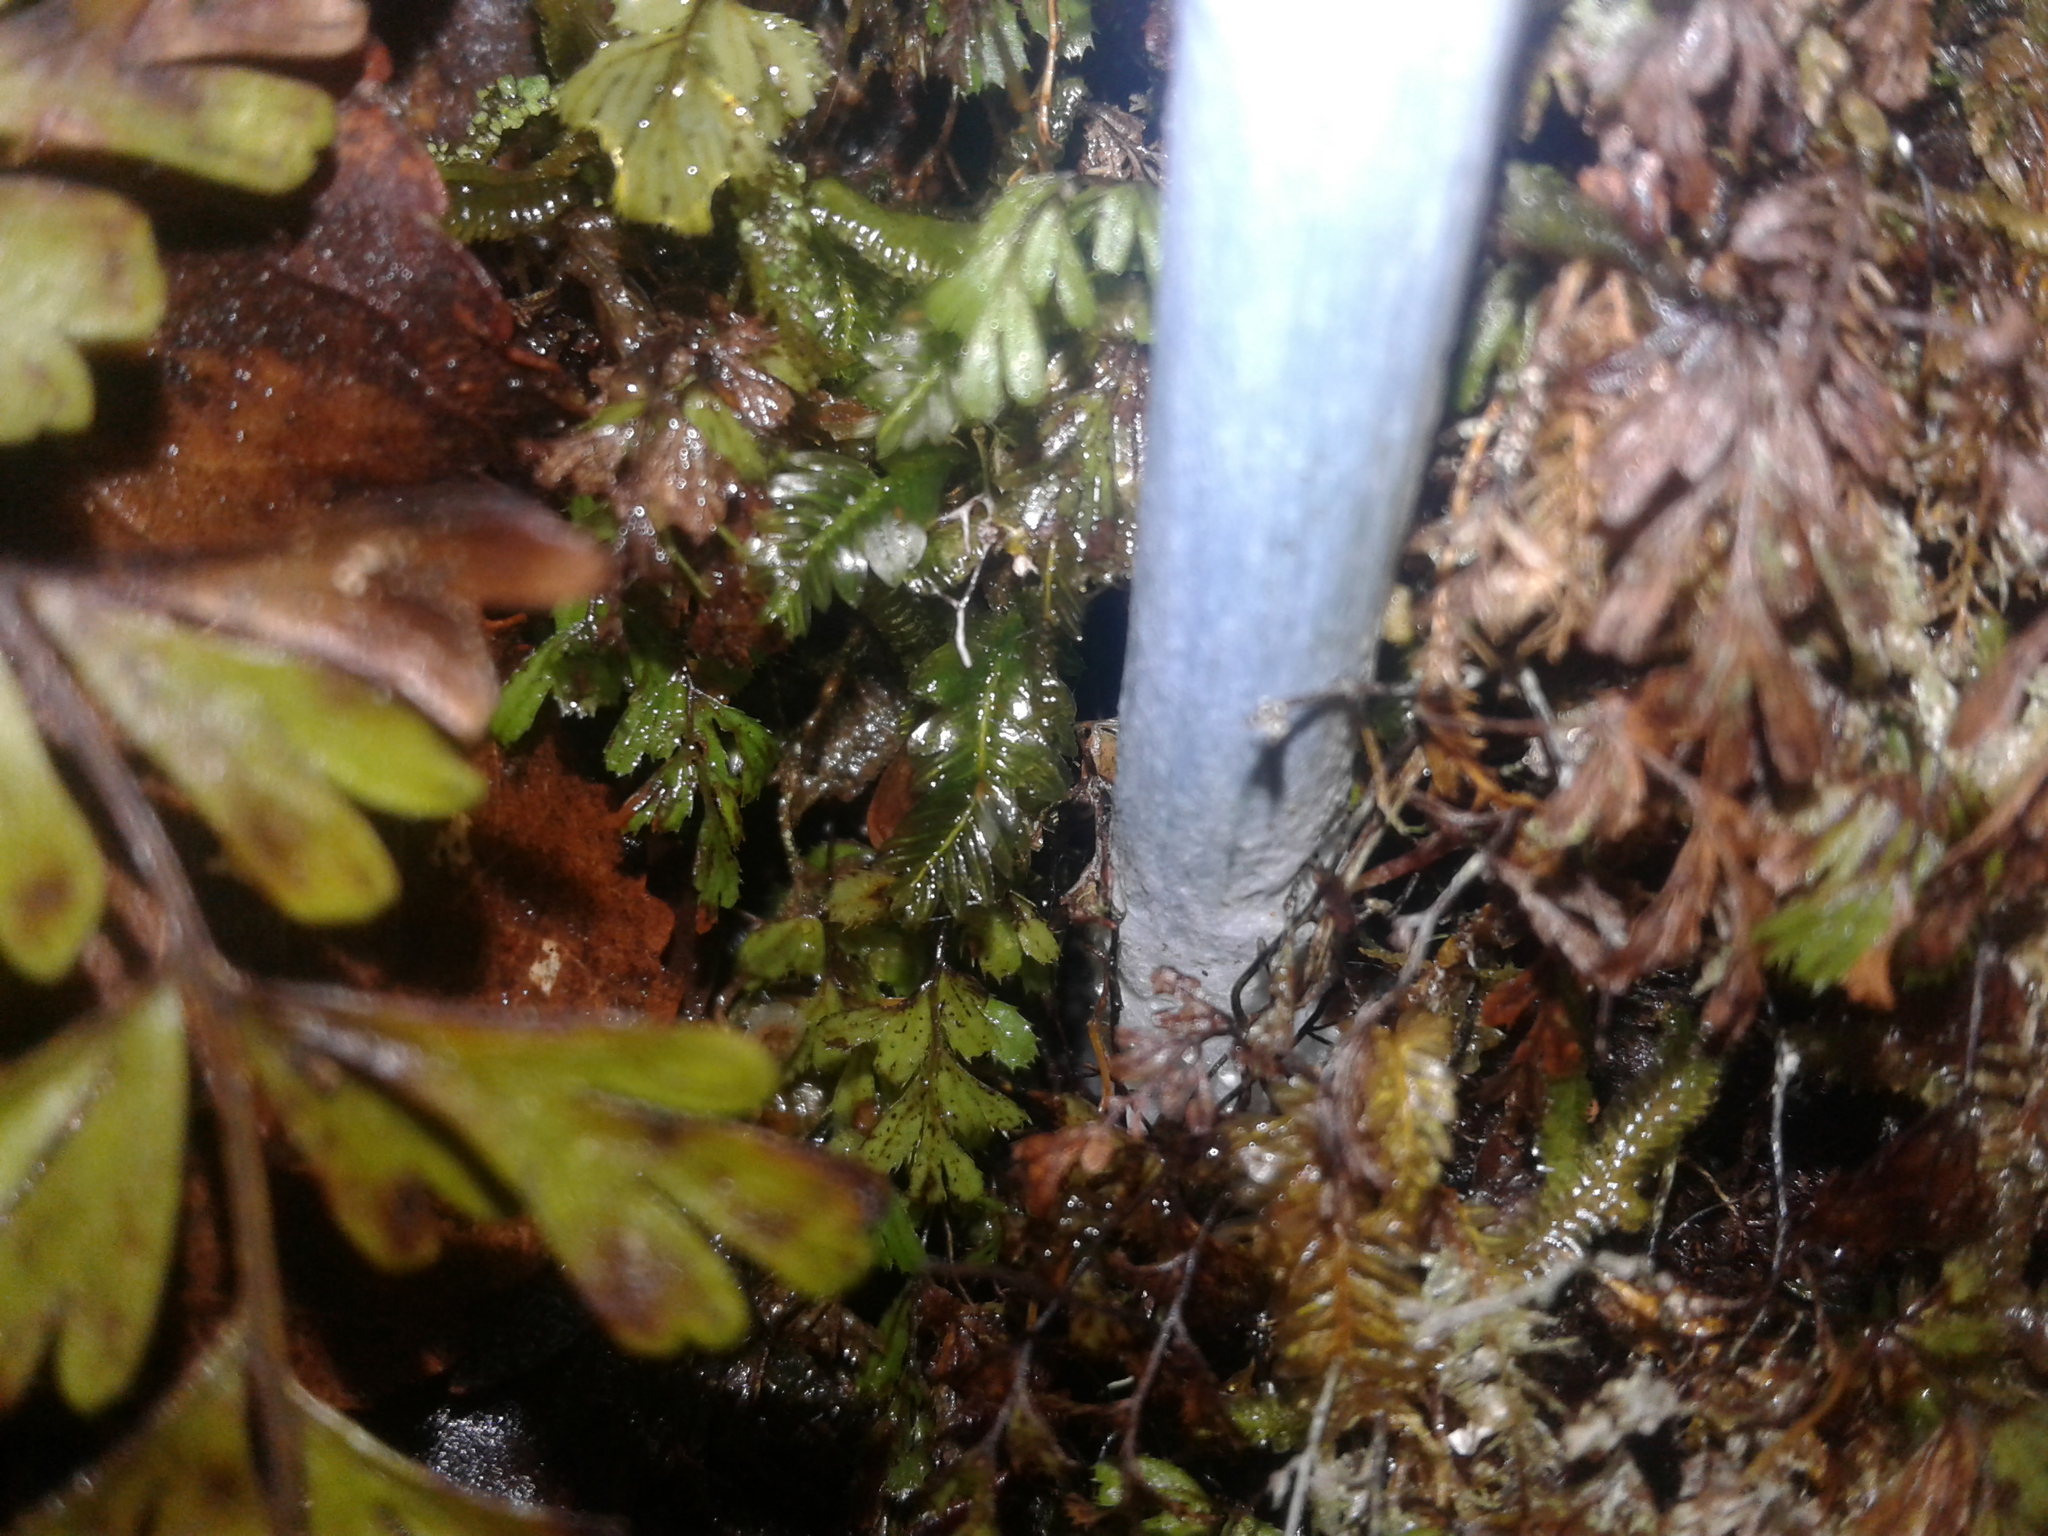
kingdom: Fungi
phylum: Basidiomycota
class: Agaricomycetes
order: Agaricales
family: Entolomataceae
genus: Entoloma
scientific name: Entoloma hochstetteri
